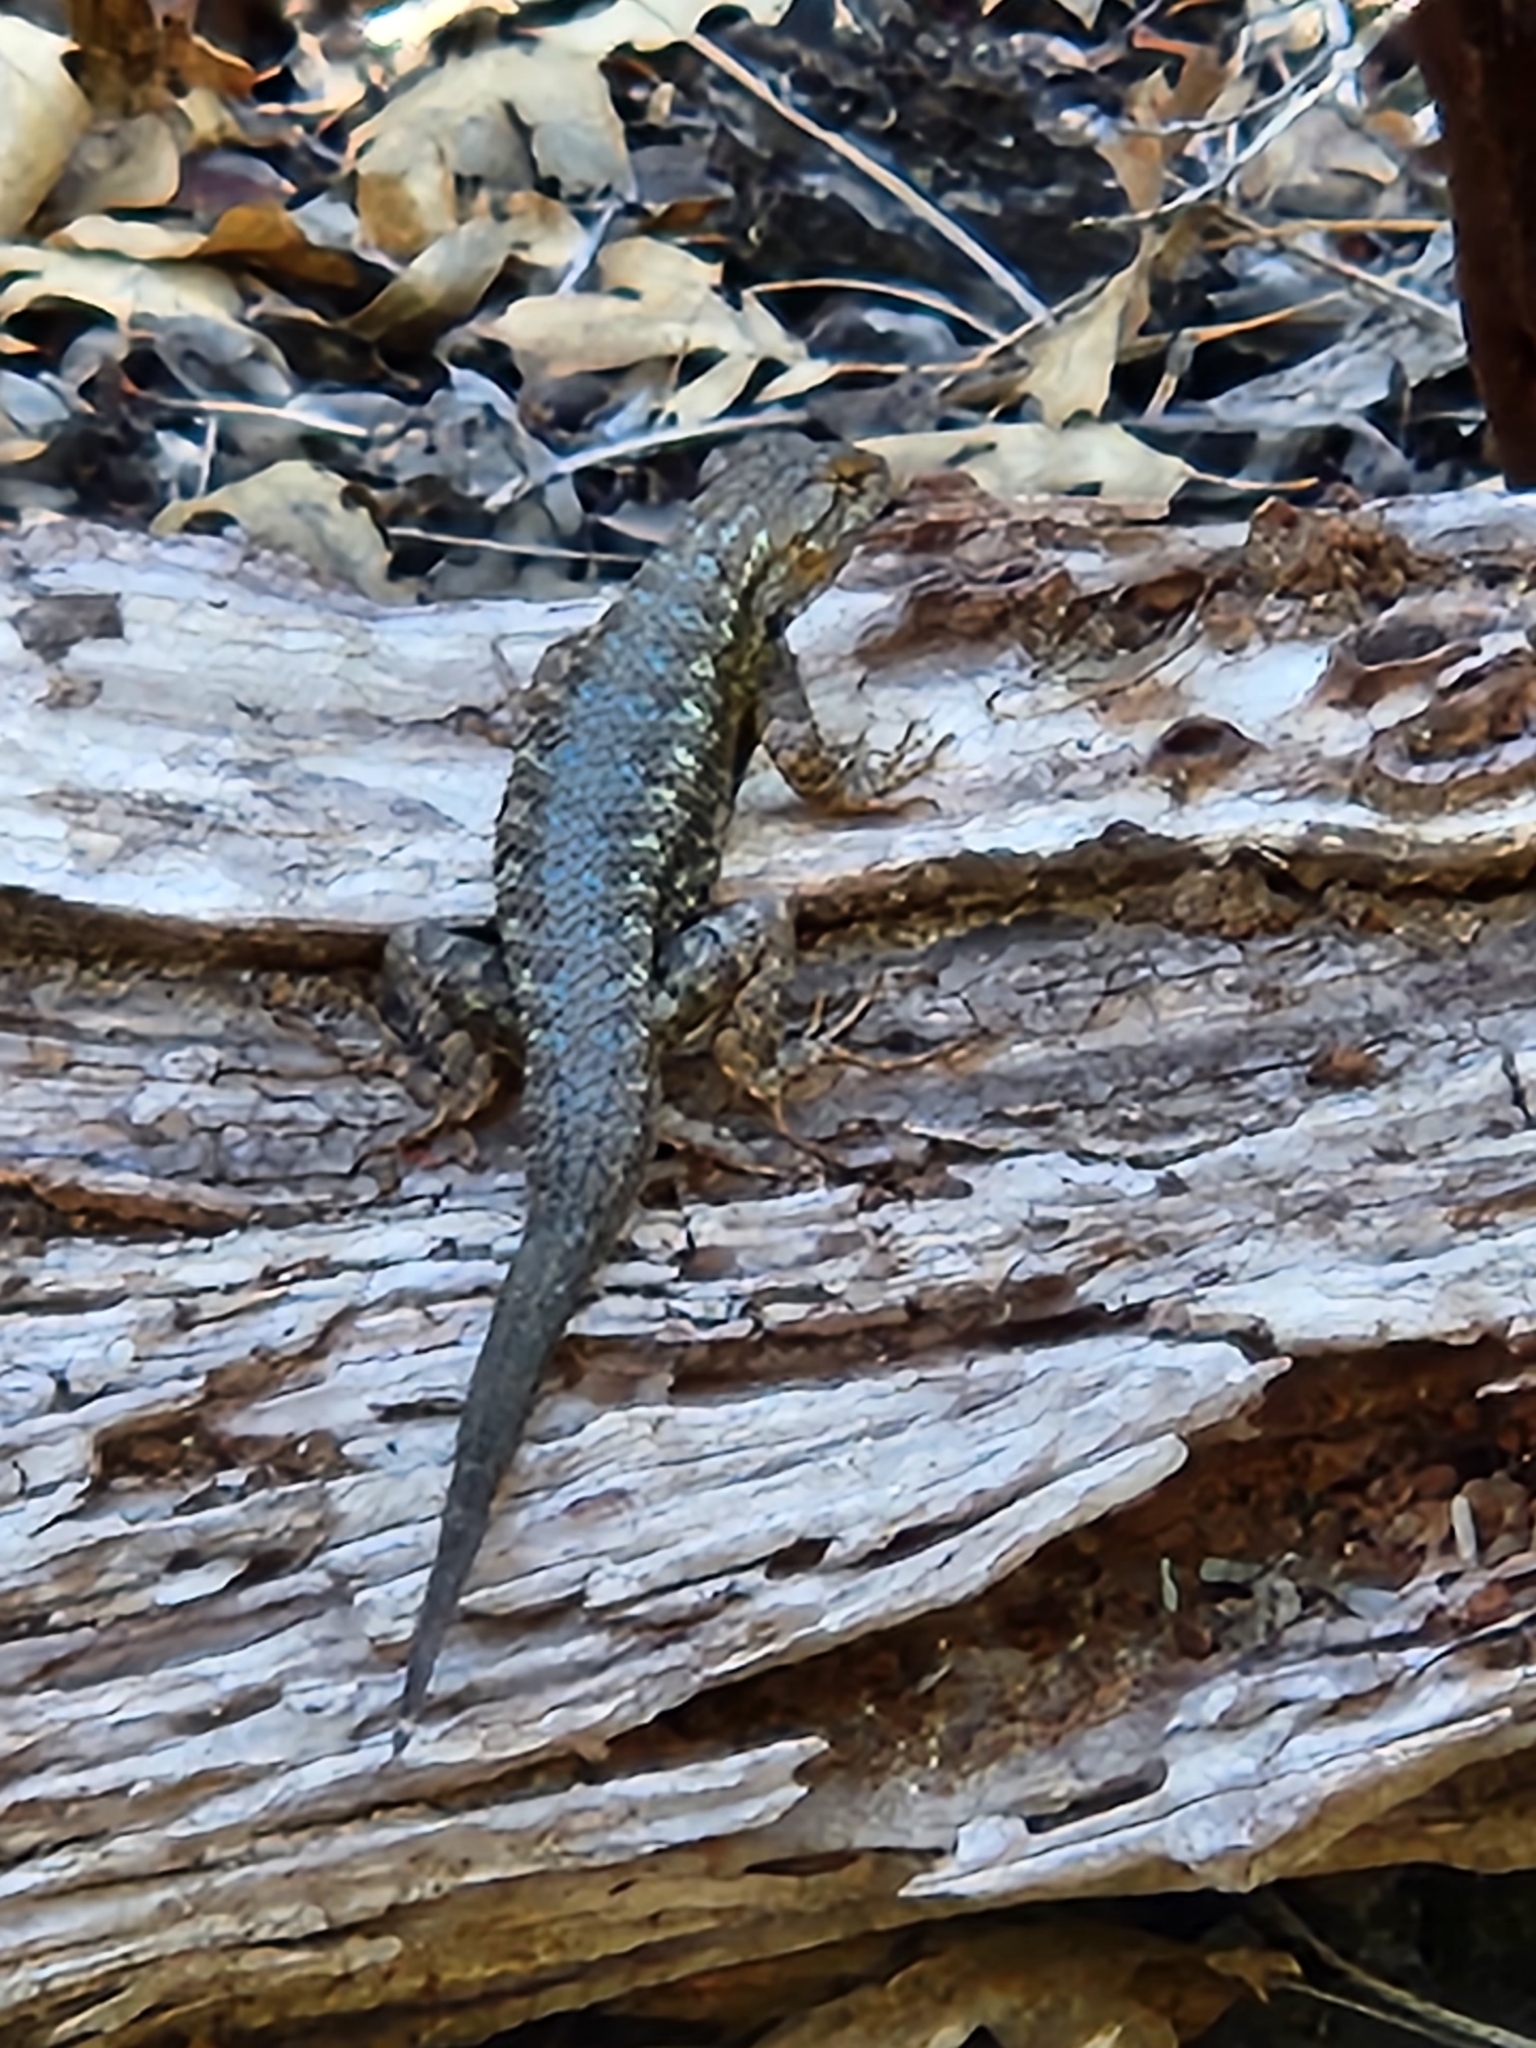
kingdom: Animalia
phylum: Chordata
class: Squamata
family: Phrynosomatidae
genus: Sceloporus
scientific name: Sceloporus occidentalis
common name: Western fence lizard
